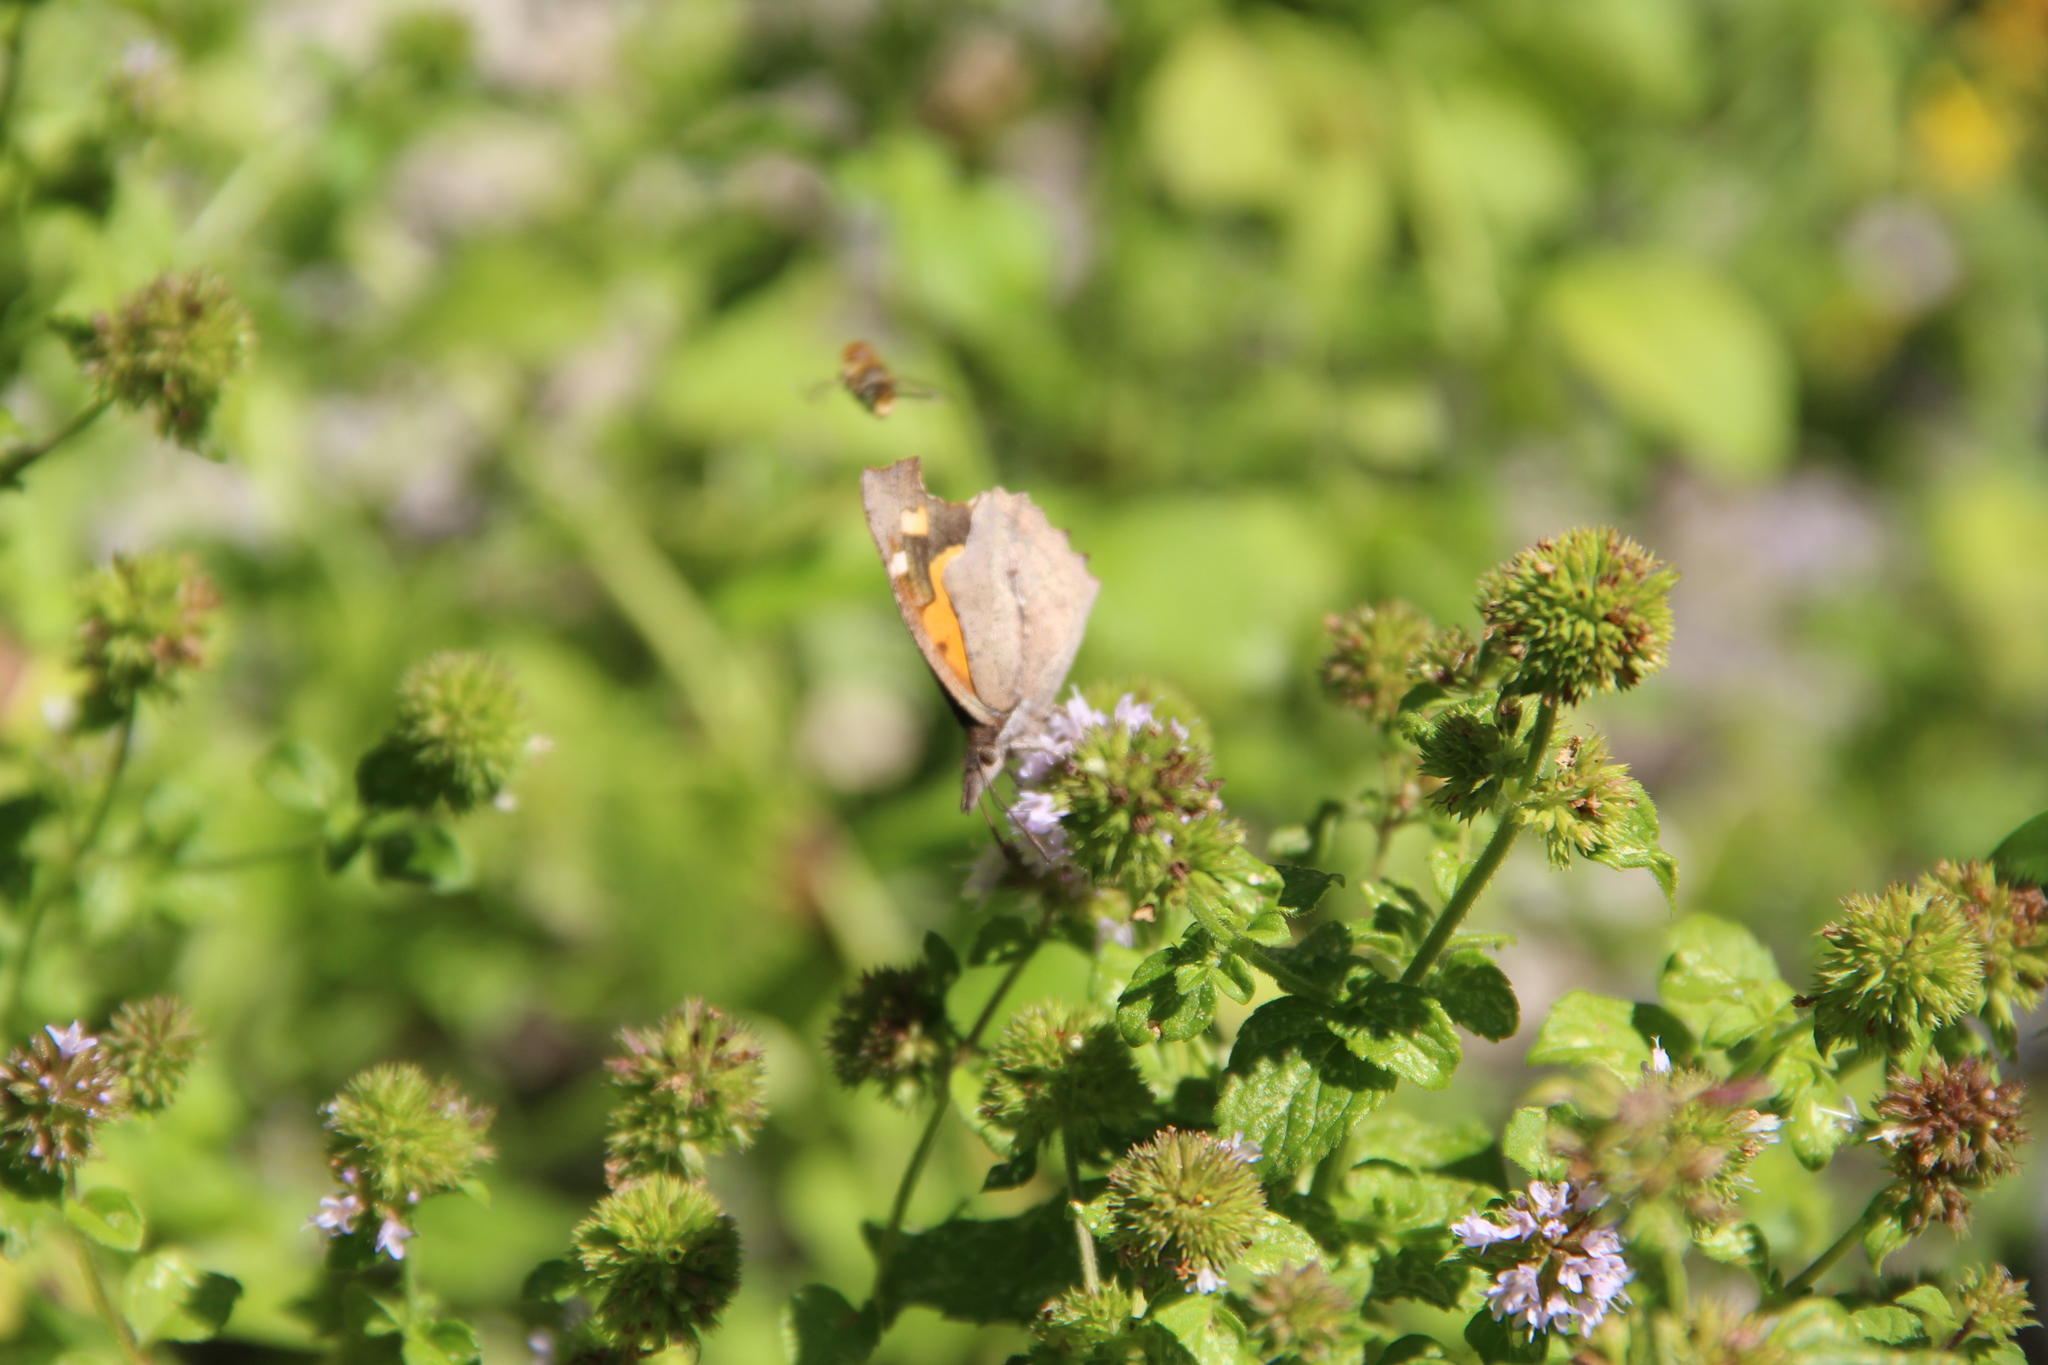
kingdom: Animalia
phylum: Arthropoda
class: Insecta
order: Lepidoptera
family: Nymphalidae
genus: Libythea
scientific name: Libythea celtis
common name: Nettle-tree butterfly
